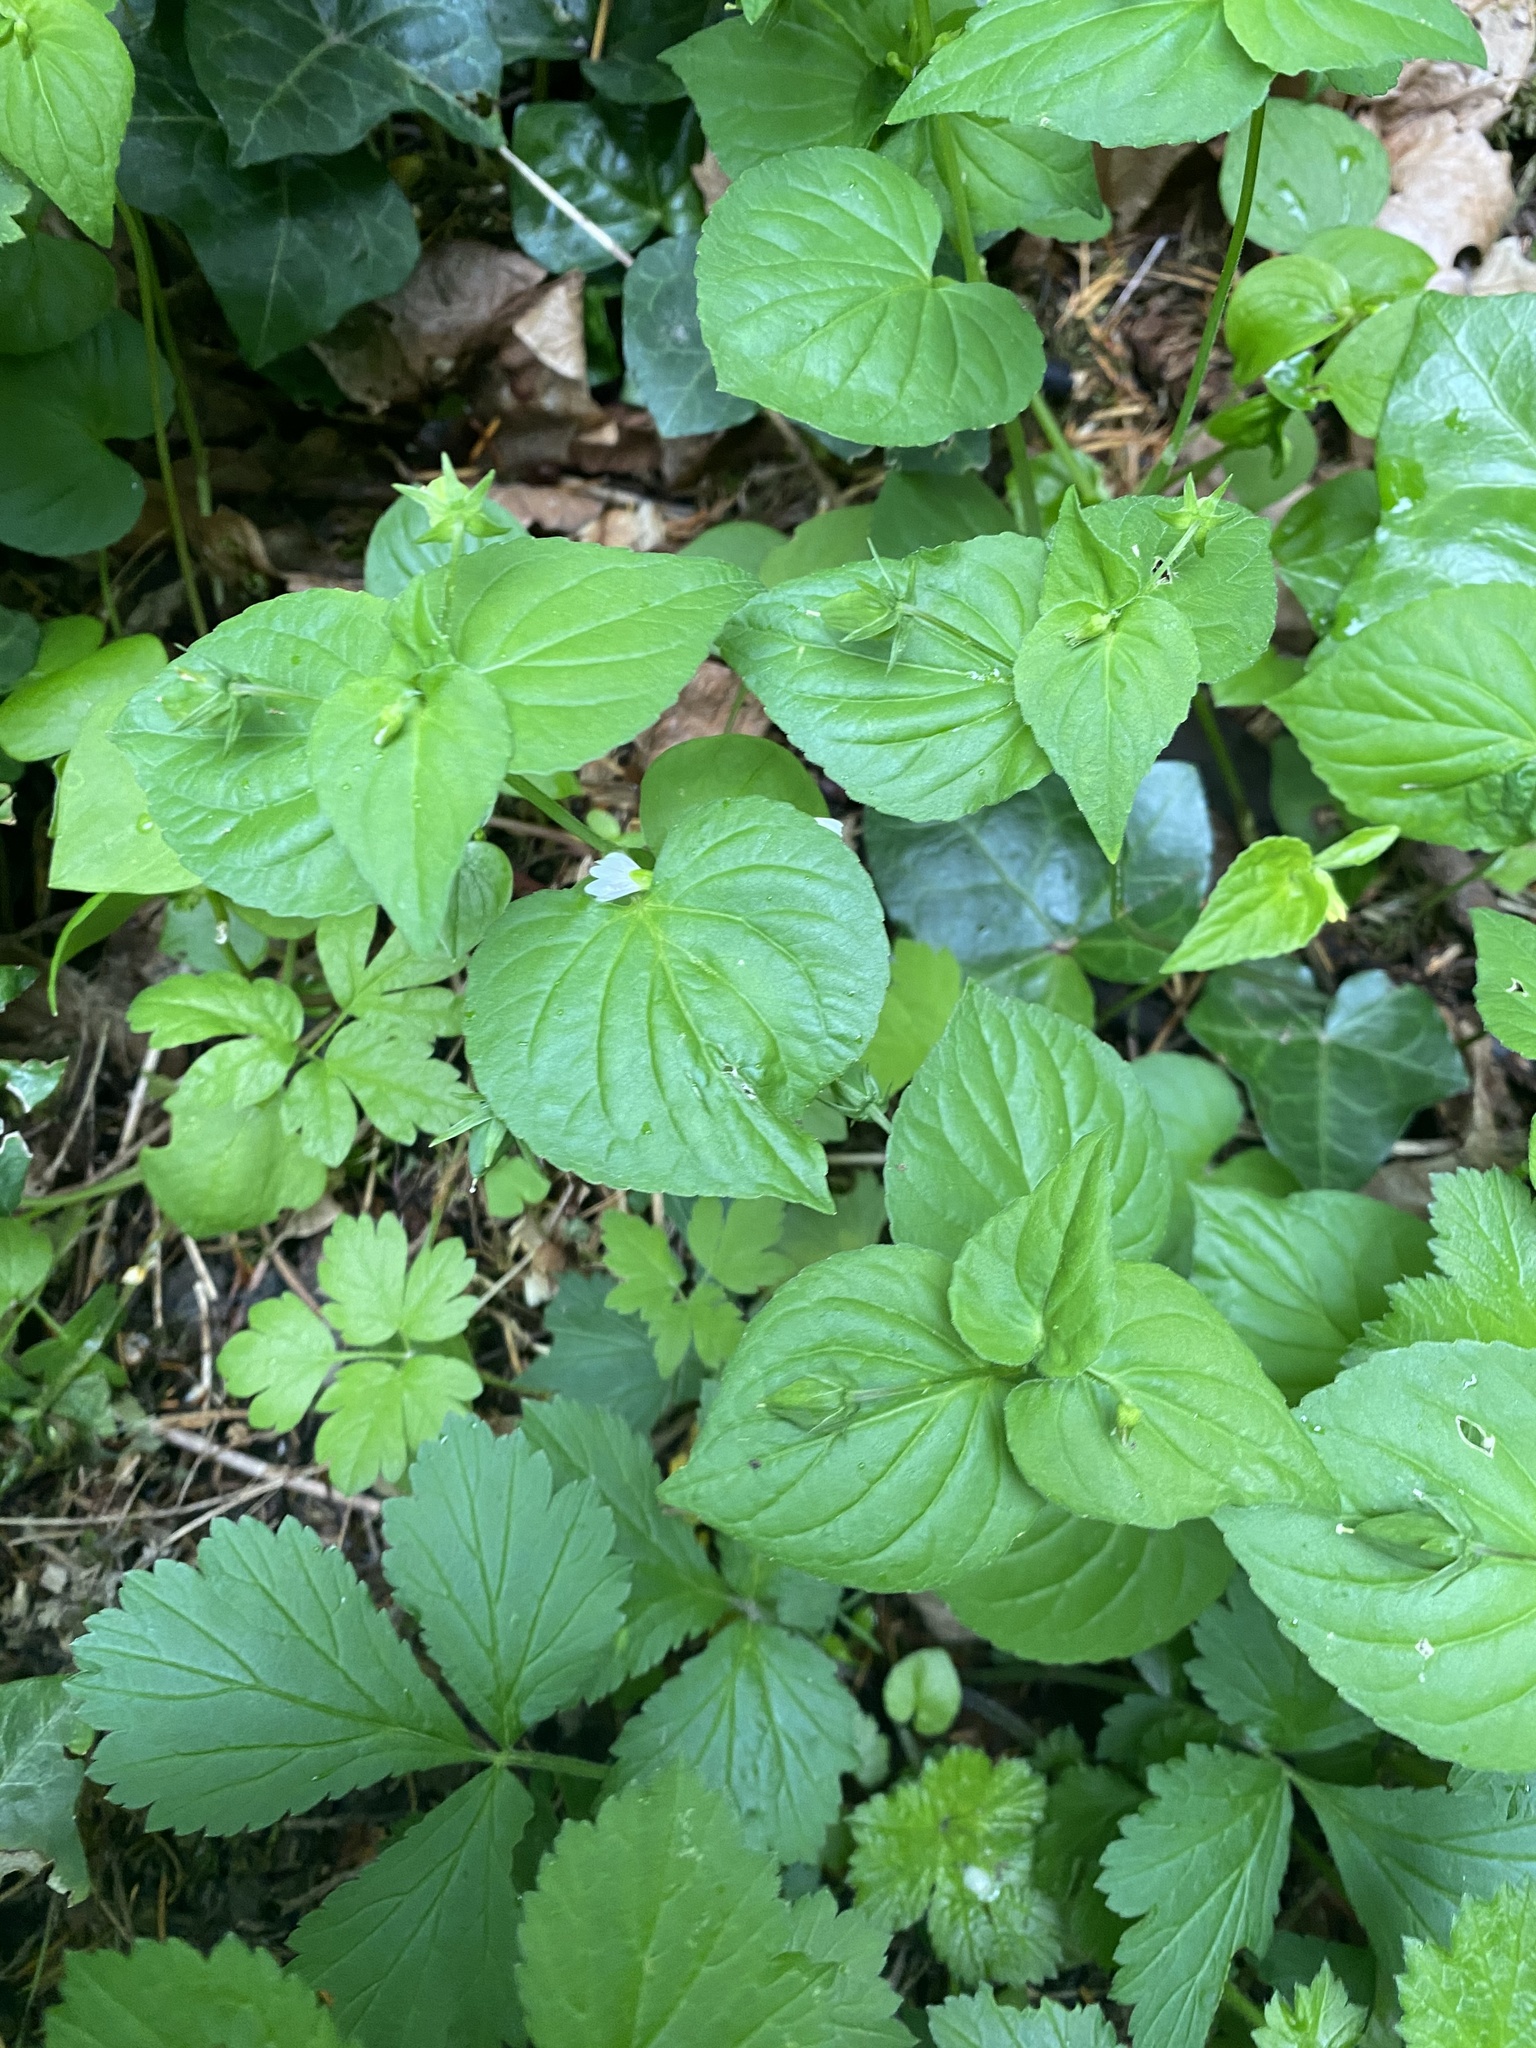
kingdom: Plantae
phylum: Tracheophyta
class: Magnoliopsida
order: Malpighiales
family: Violaceae
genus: Viola
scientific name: Viola glabella
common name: Stream violet
